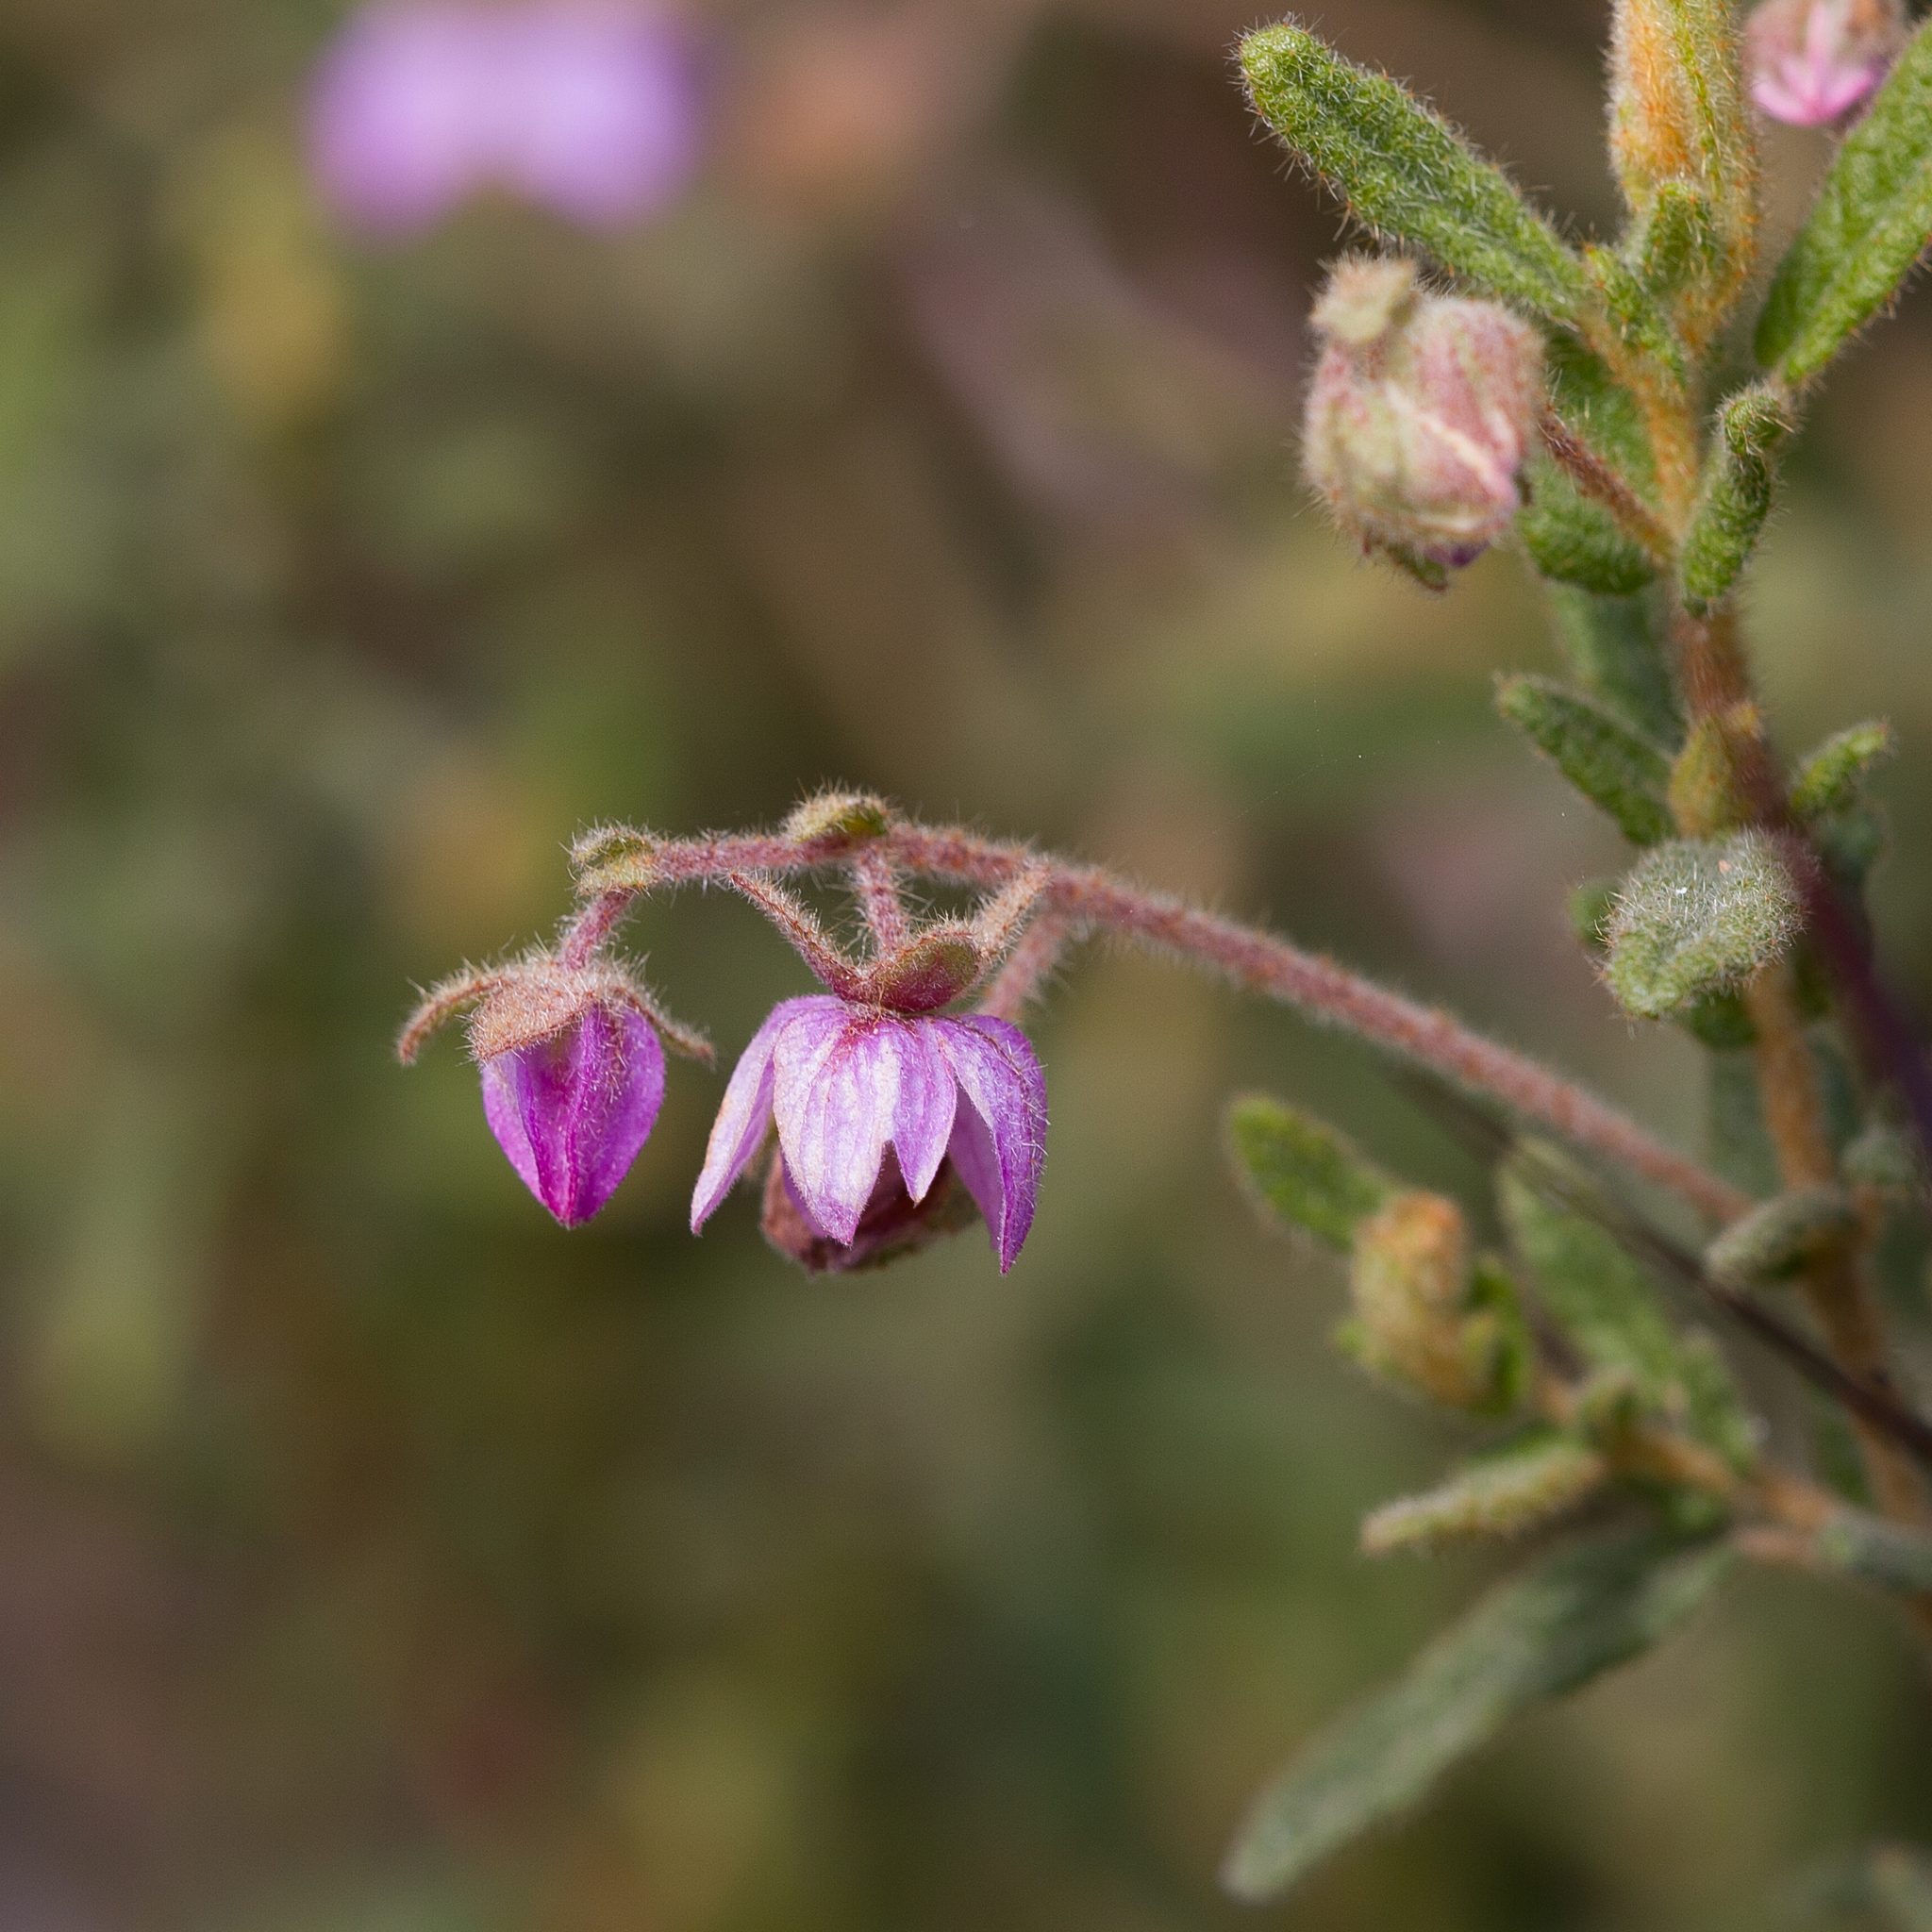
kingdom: Plantae
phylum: Tracheophyta
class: Magnoliopsida
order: Malvales
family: Malvaceae
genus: Thomasia
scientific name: Thomasia petalocalyx
